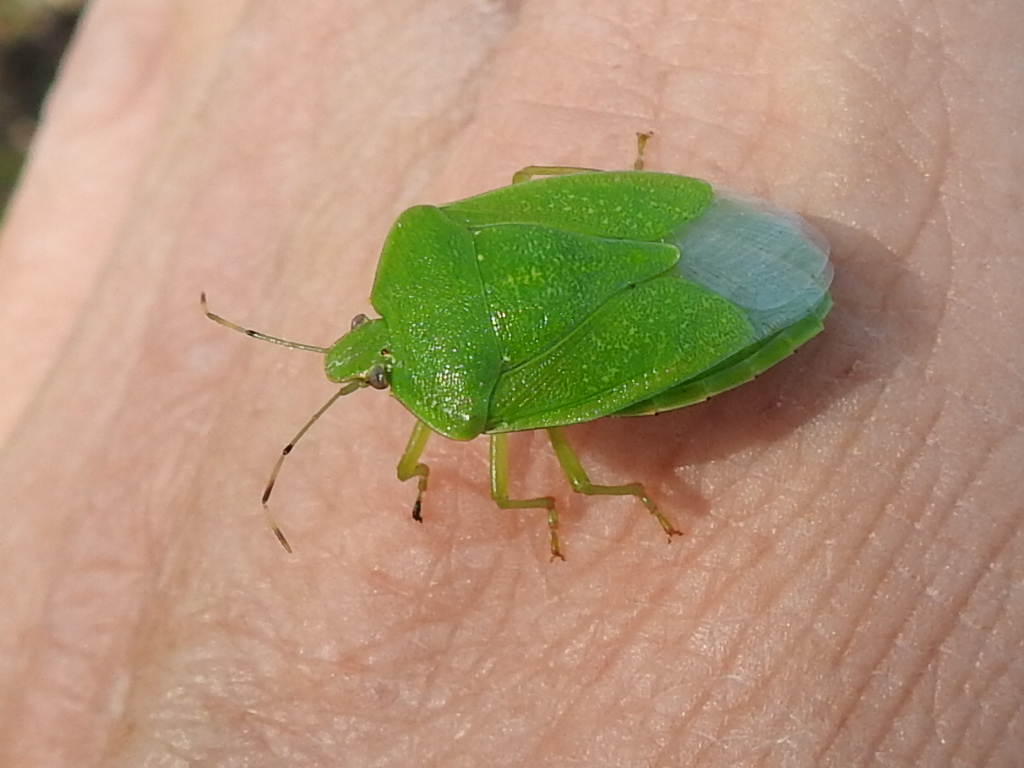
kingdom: Animalia
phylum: Arthropoda
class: Insecta
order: Hemiptera
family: Pentatomidae
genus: Chinavia
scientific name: Chinavia hilaris
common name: Green stink bug
